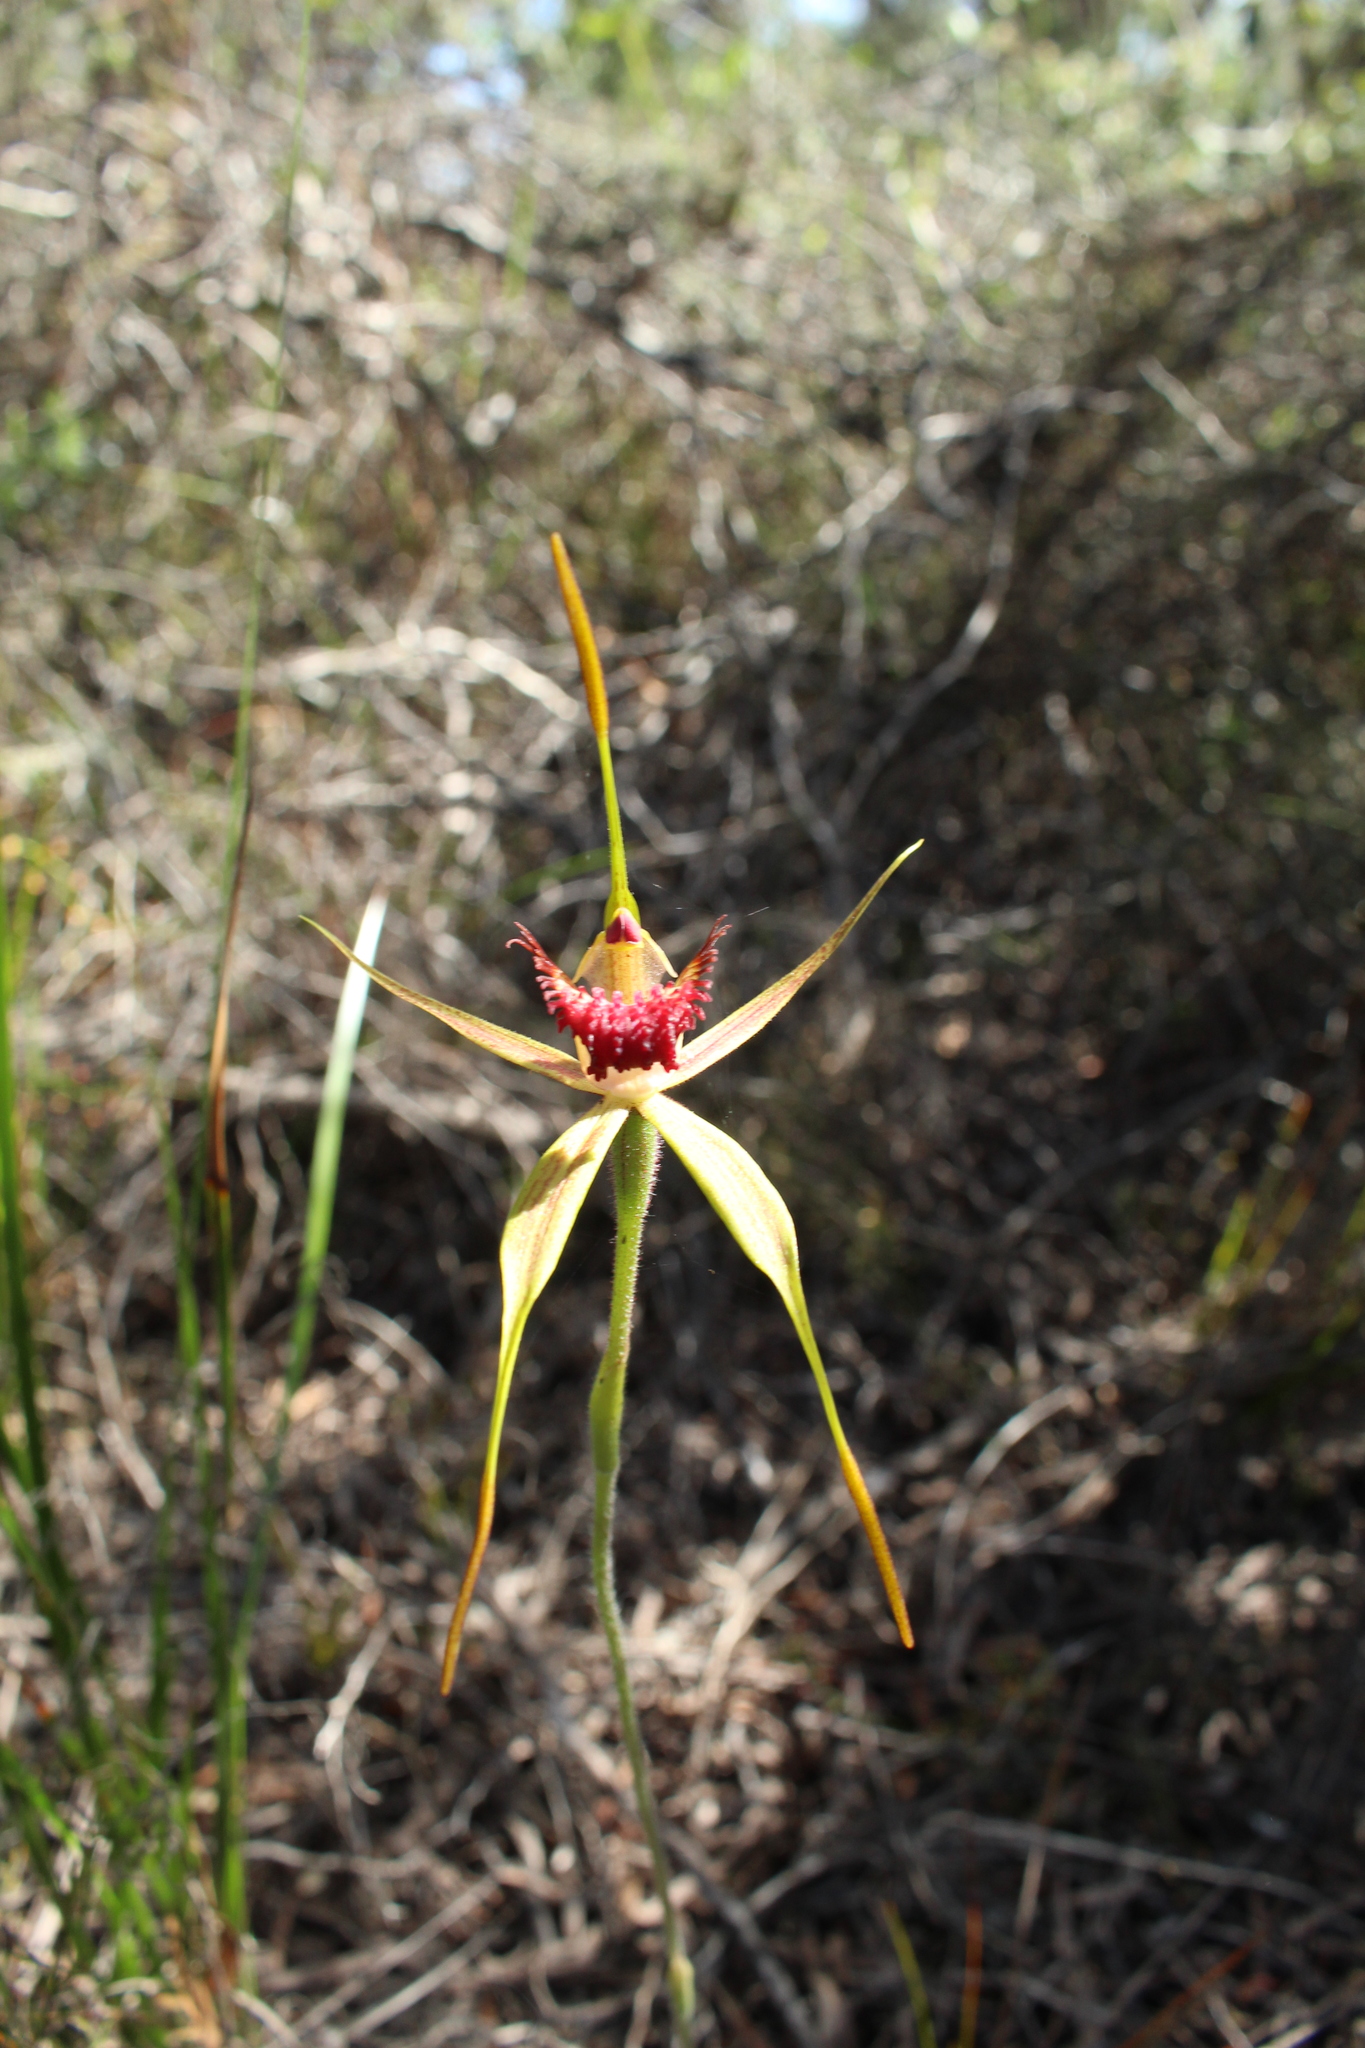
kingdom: Plantae
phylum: Tracheophyta
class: Liliopsida
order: Asparagales
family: Orchidaceae
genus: Caladenia
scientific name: Caladenia pectinata
